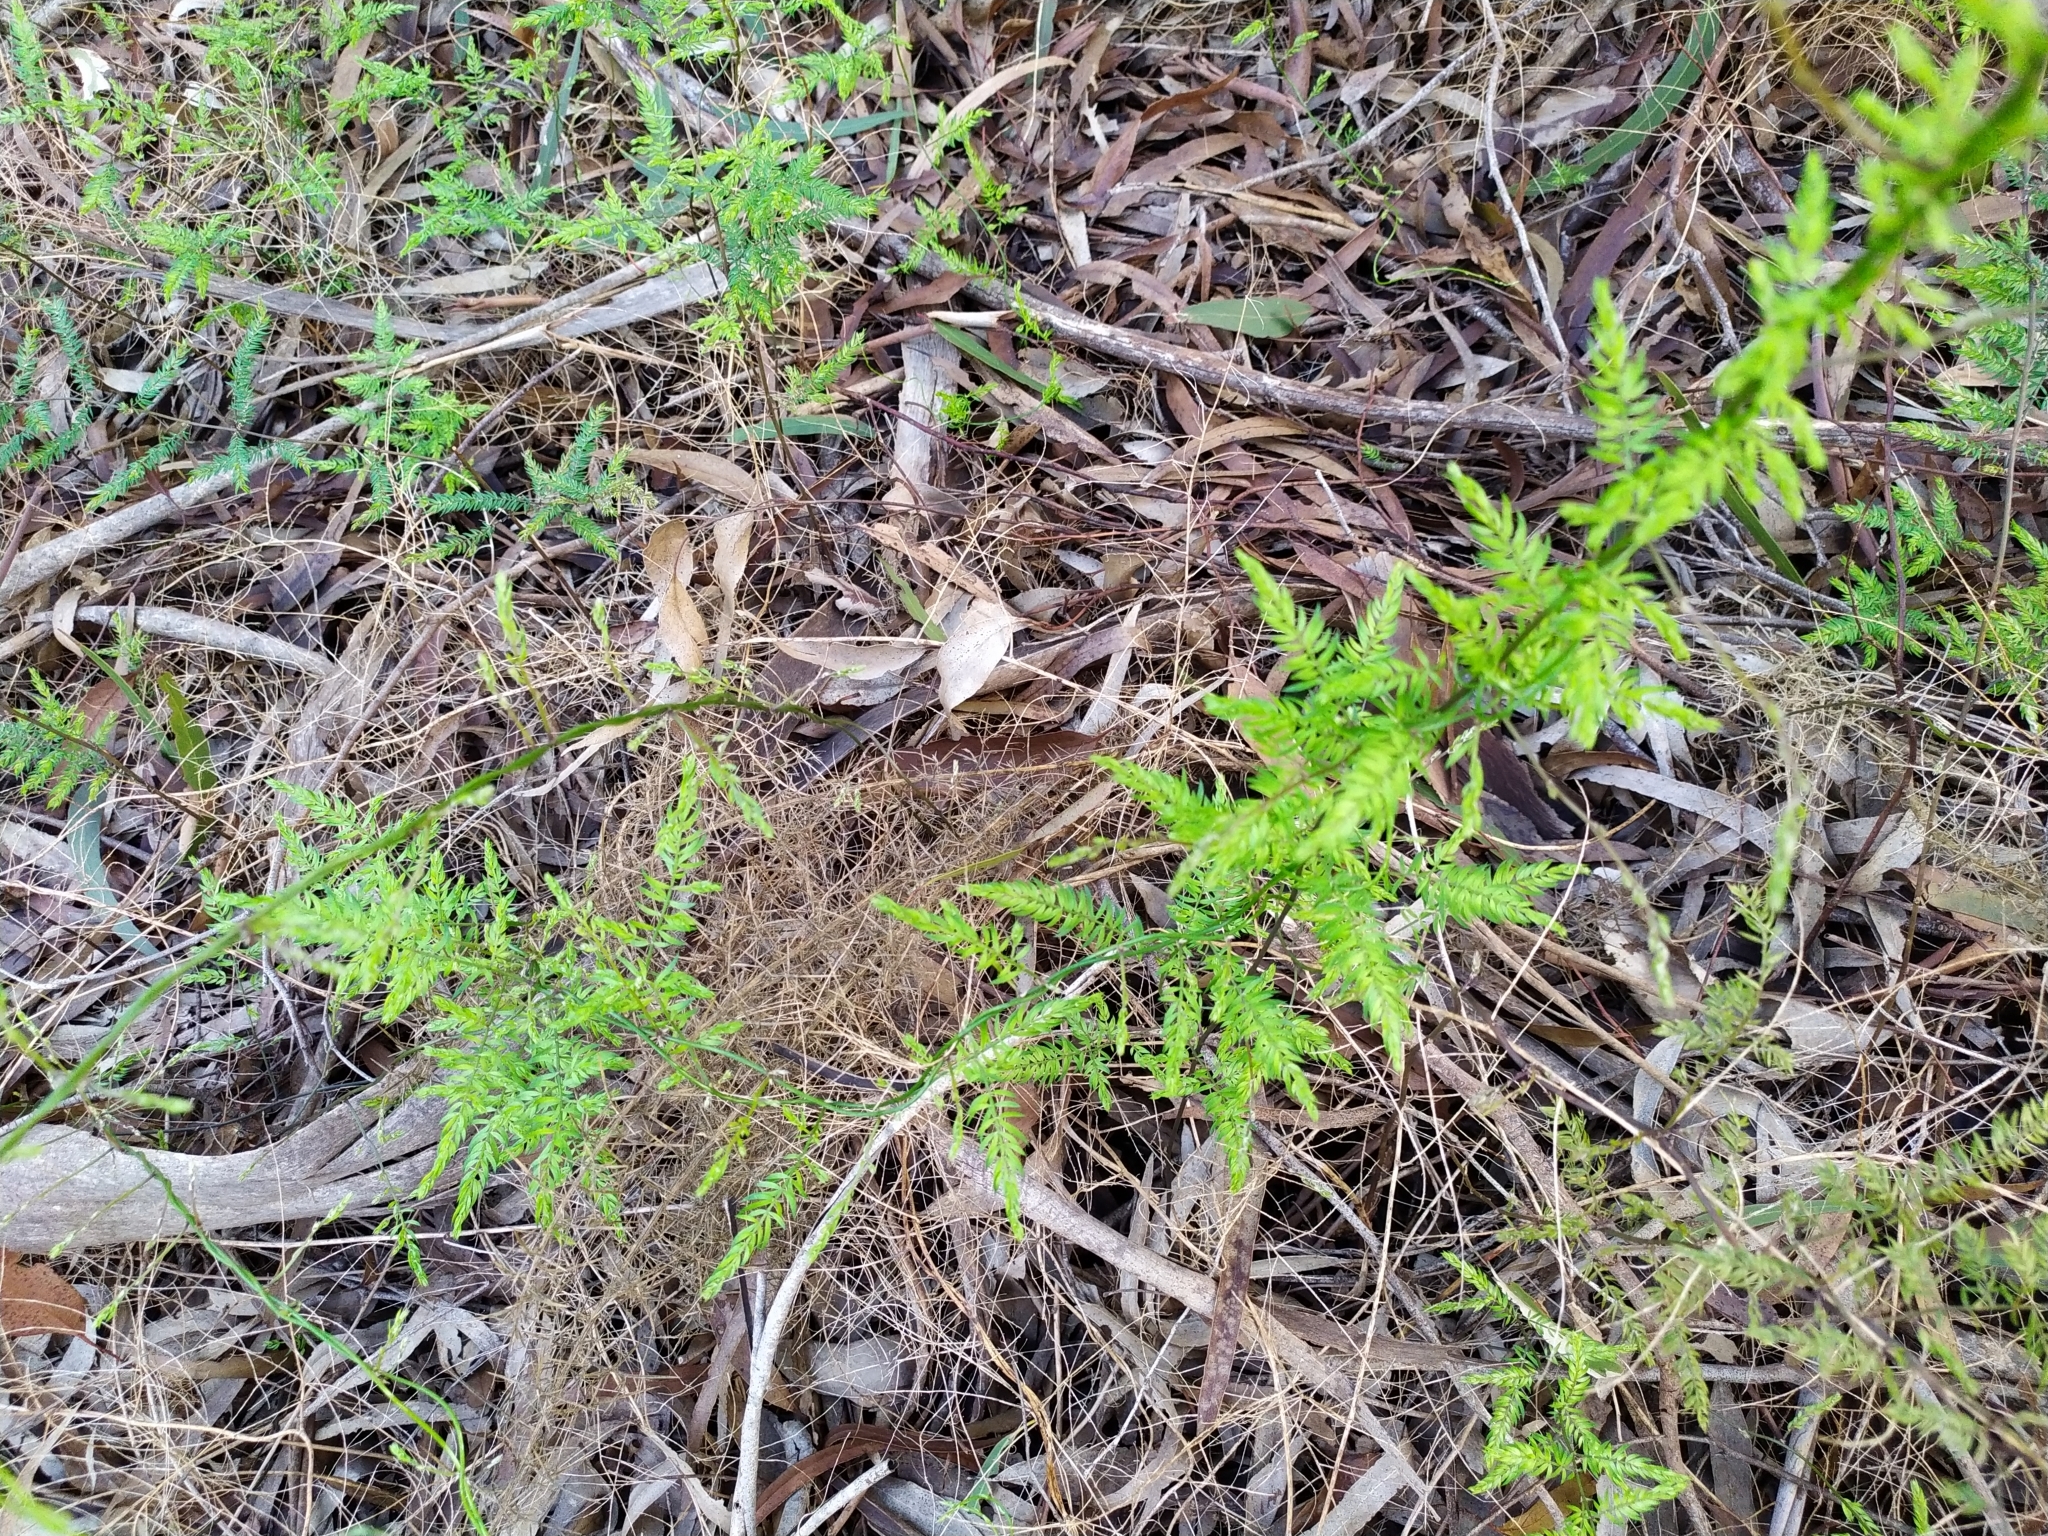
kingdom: Plantae
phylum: Tracheophyta
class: Liliopsida
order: Asparagales
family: Asparagaceae
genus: Asparagus
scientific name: Asparagus scandens
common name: Asparagus-fern
